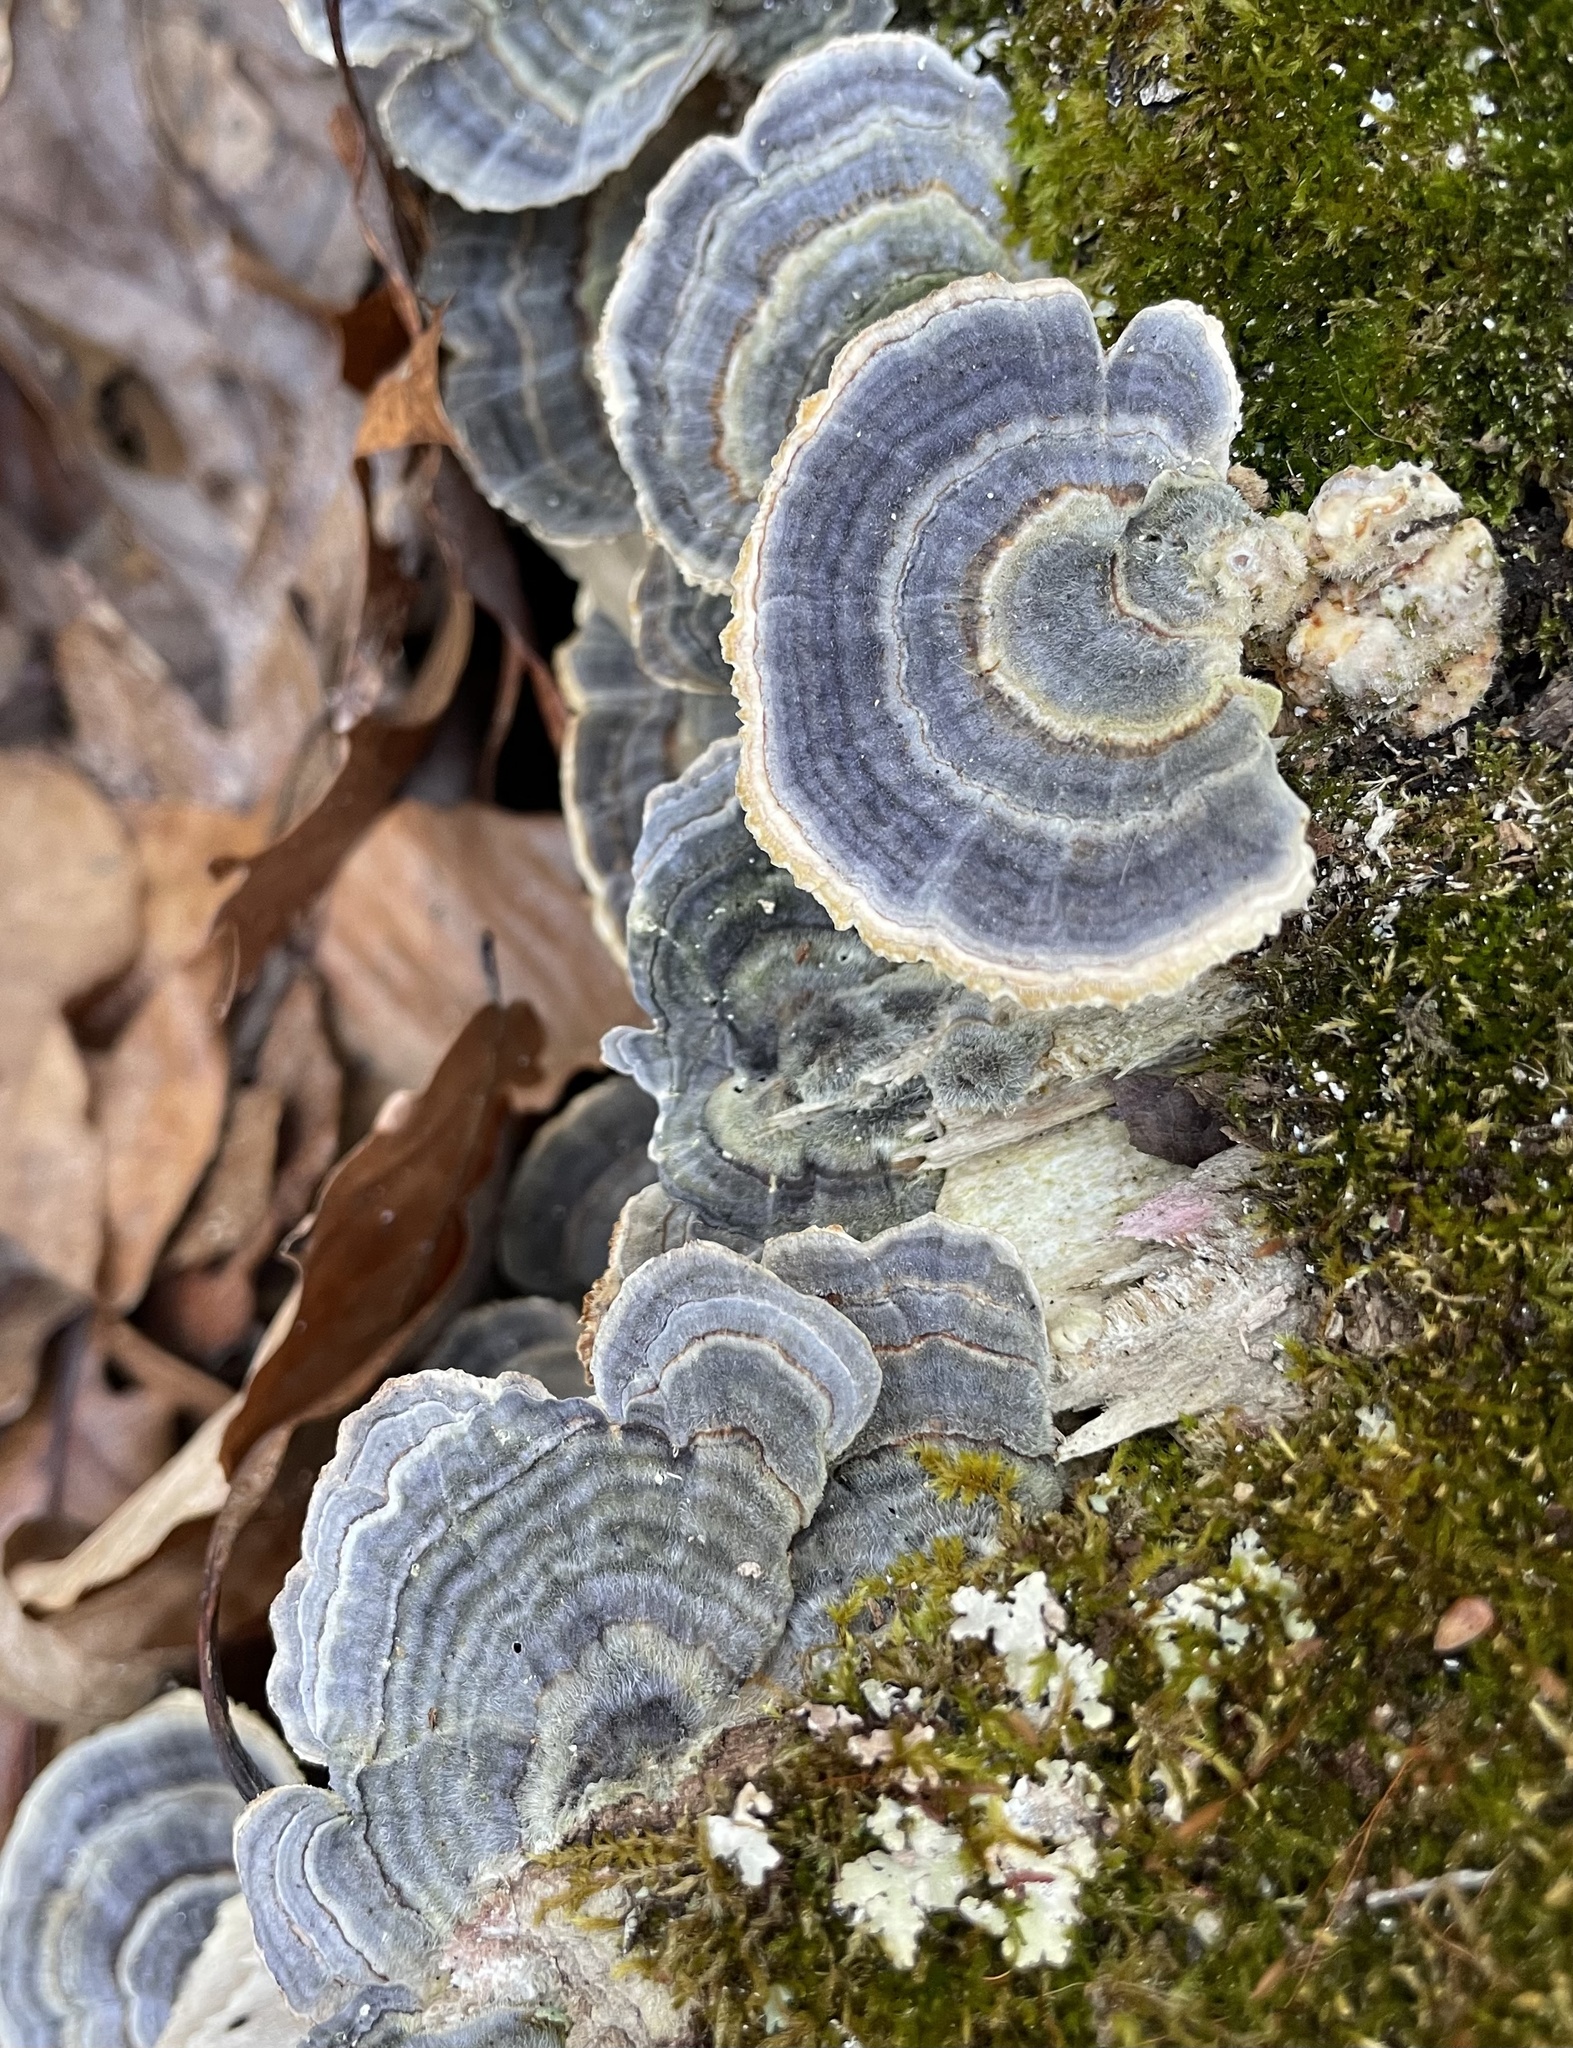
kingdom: Fungi
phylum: Basidiomycota
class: Agaricomycetes
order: Polyporales
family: Polyporaceae
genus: Trametes
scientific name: Trametes versicolor
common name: Turkeytail
